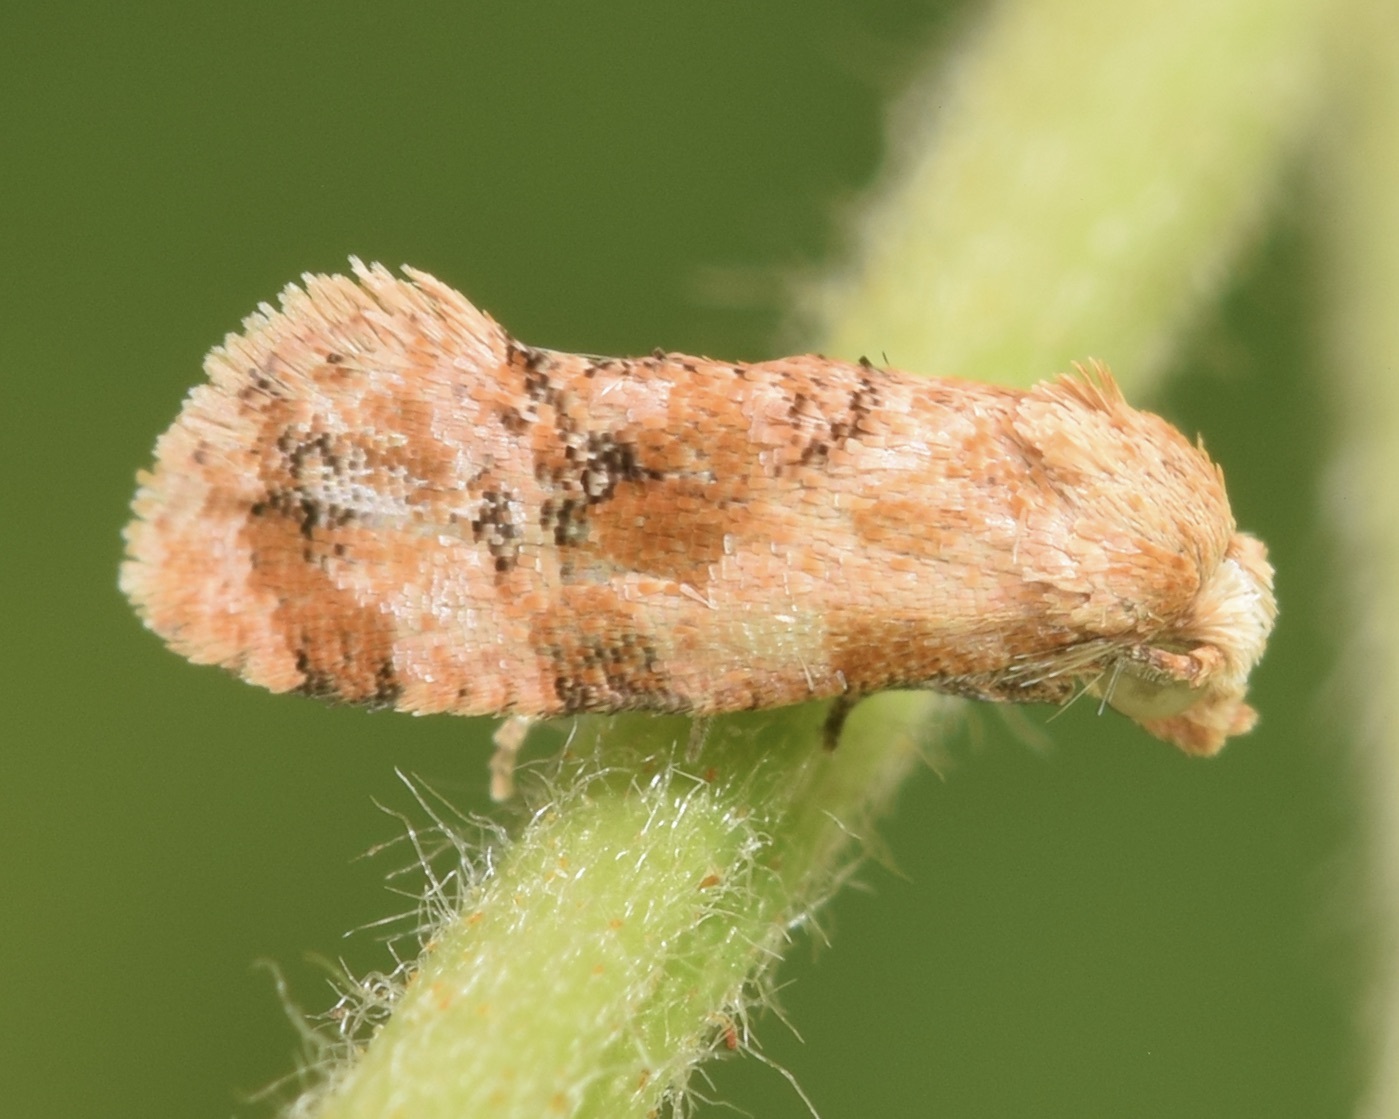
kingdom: Animalia
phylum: Arthropoda
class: Insecta
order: Lepidoptera
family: Tortricidae
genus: Cochylis
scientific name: Cochylis bucera
